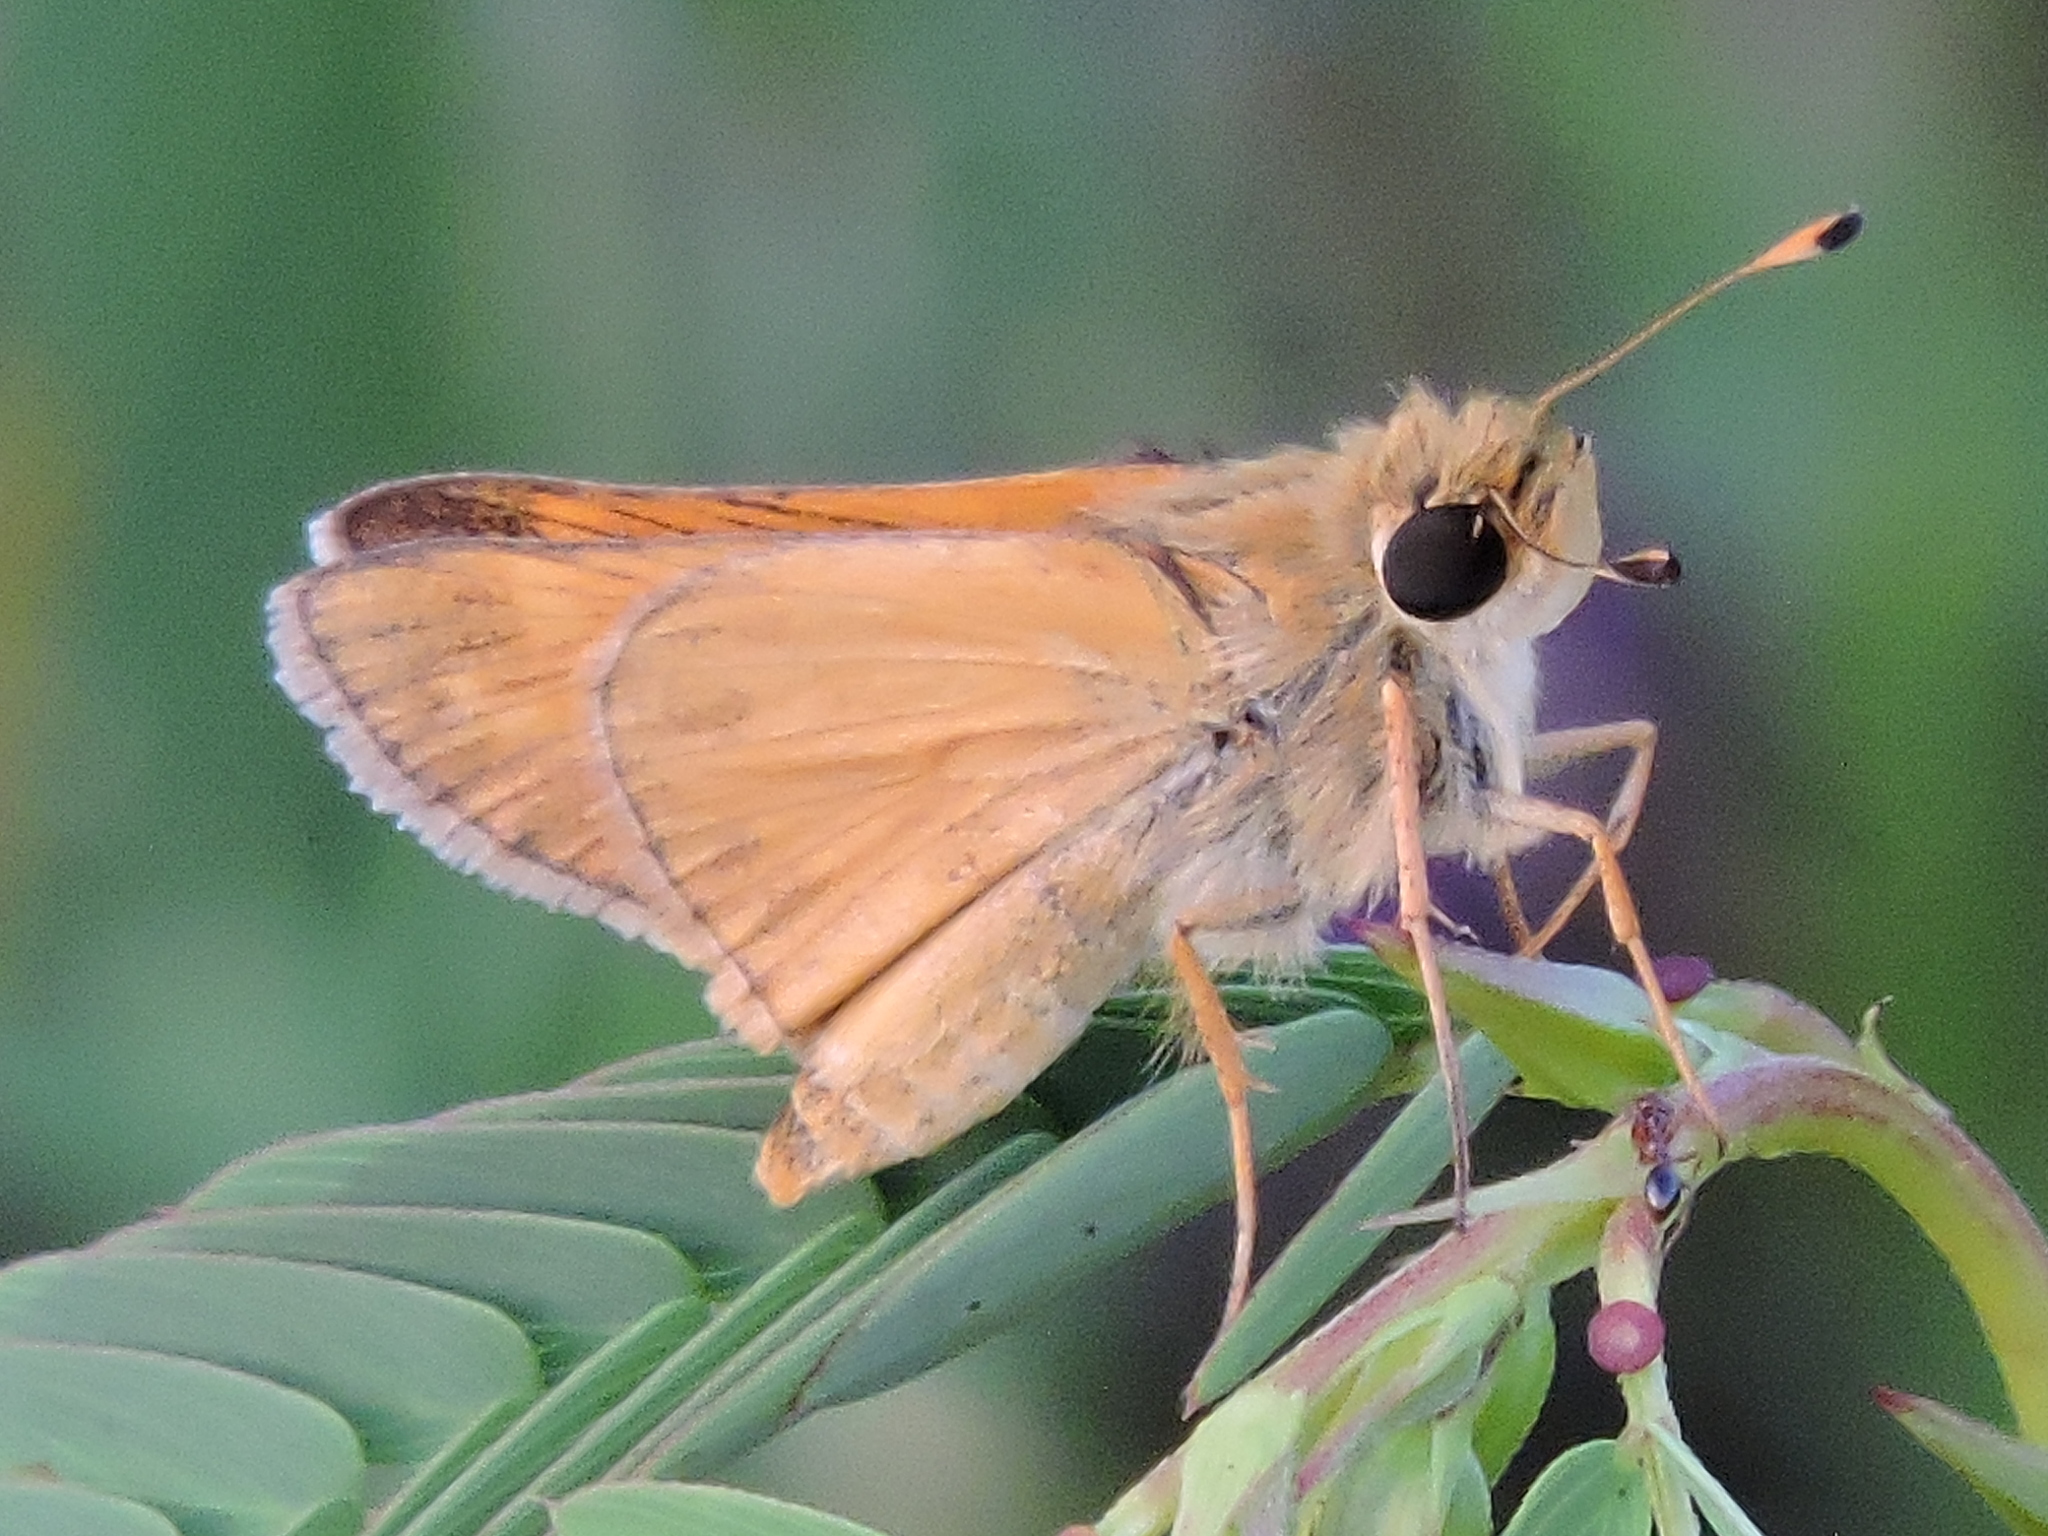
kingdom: Animalia
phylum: Arthropoda
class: Insecta
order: Lepidoptera
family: Hesperiidae
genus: Atalopedes
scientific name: Atalopedes
